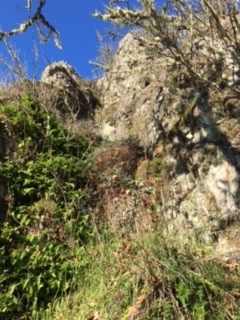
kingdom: Plantae
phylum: Tracheophyta
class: Polypodiopsida
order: Polypodiales
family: Pteridaceae
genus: Pellaea
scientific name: Pellaea andromedifolia
